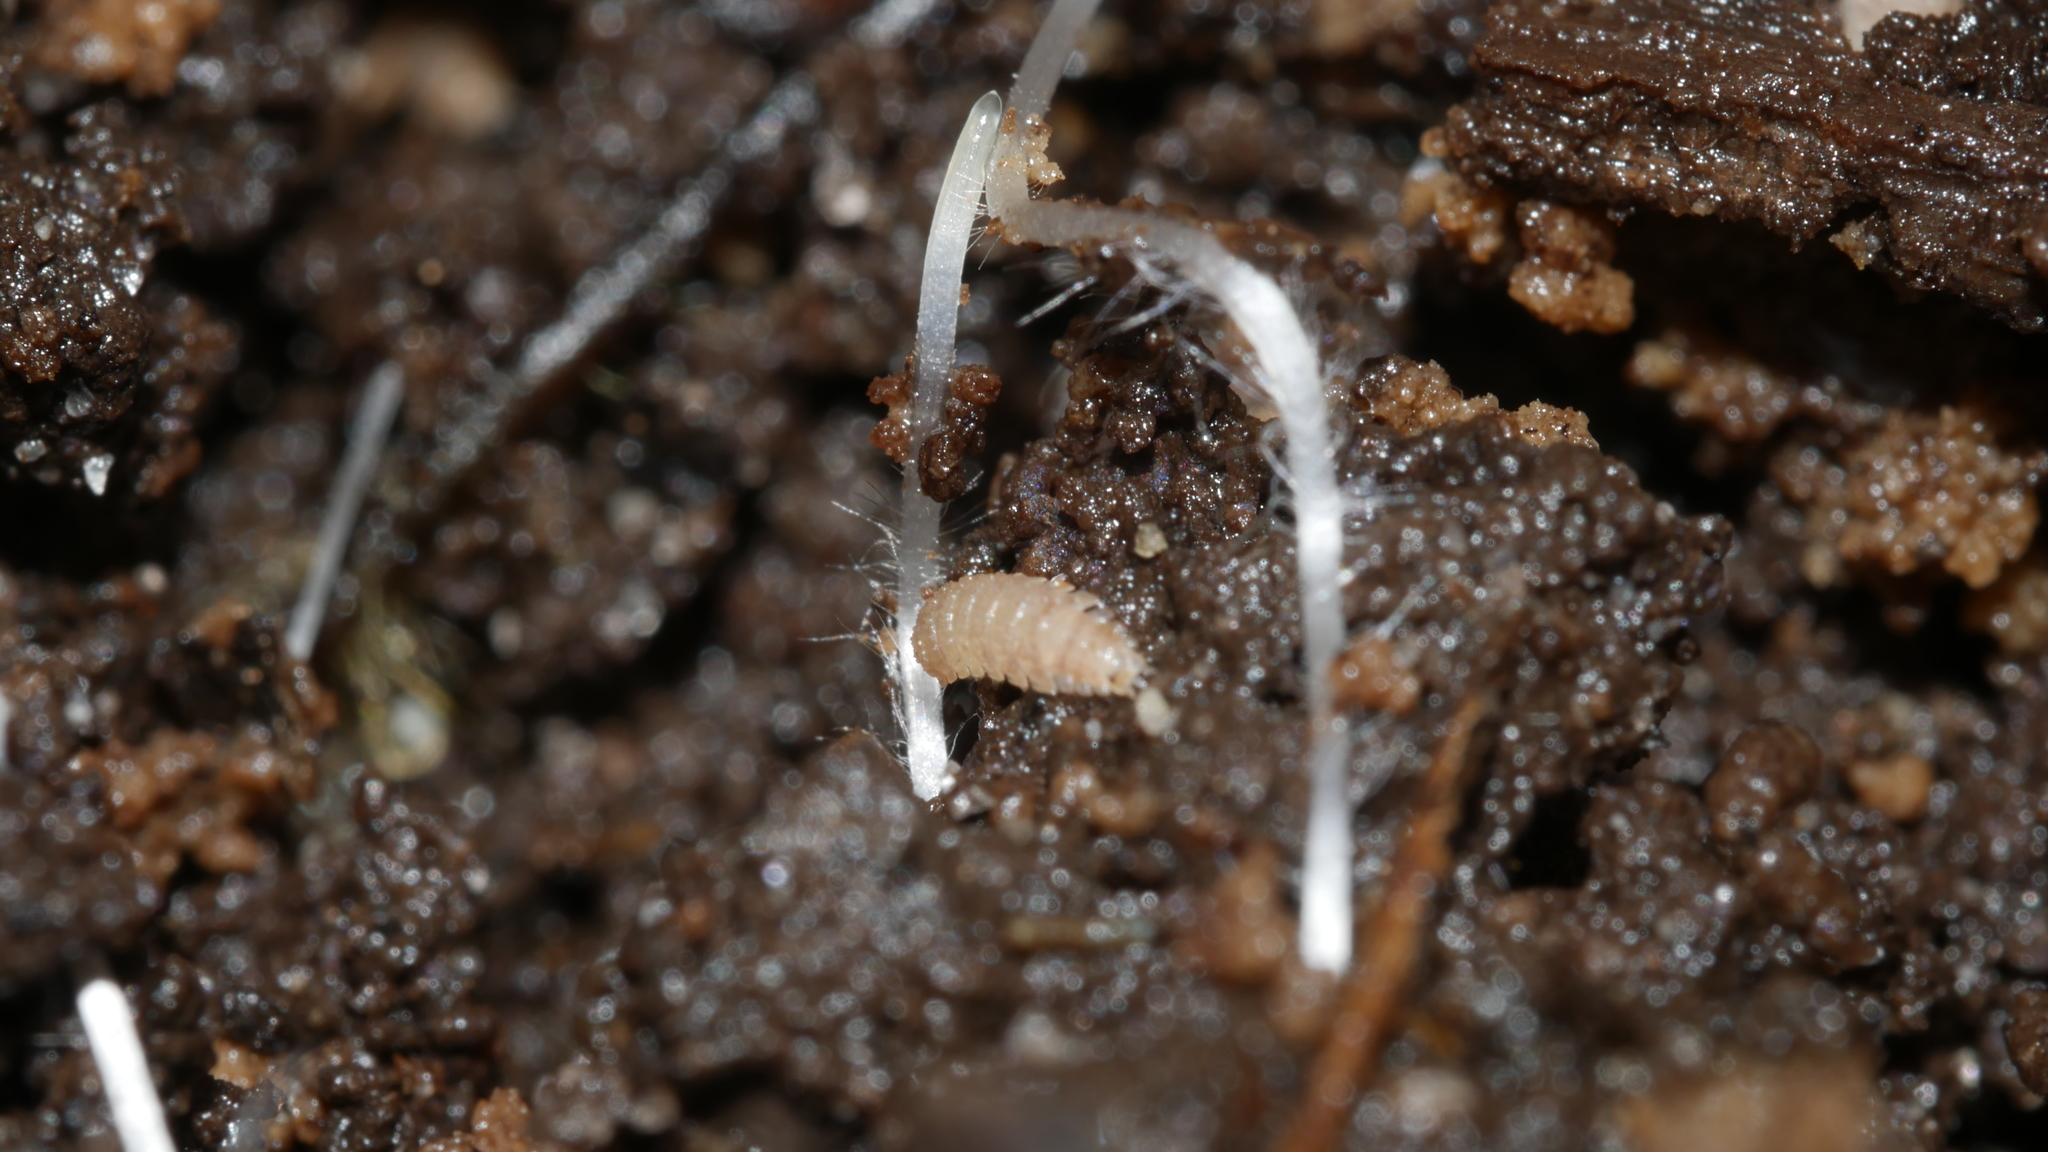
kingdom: Animalia
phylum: Arthropoda
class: Malacostraca
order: Isopoda
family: Trichoniscidae
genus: Haplophthalmus
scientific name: Haplophthalmus danicus
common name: Pillbug
